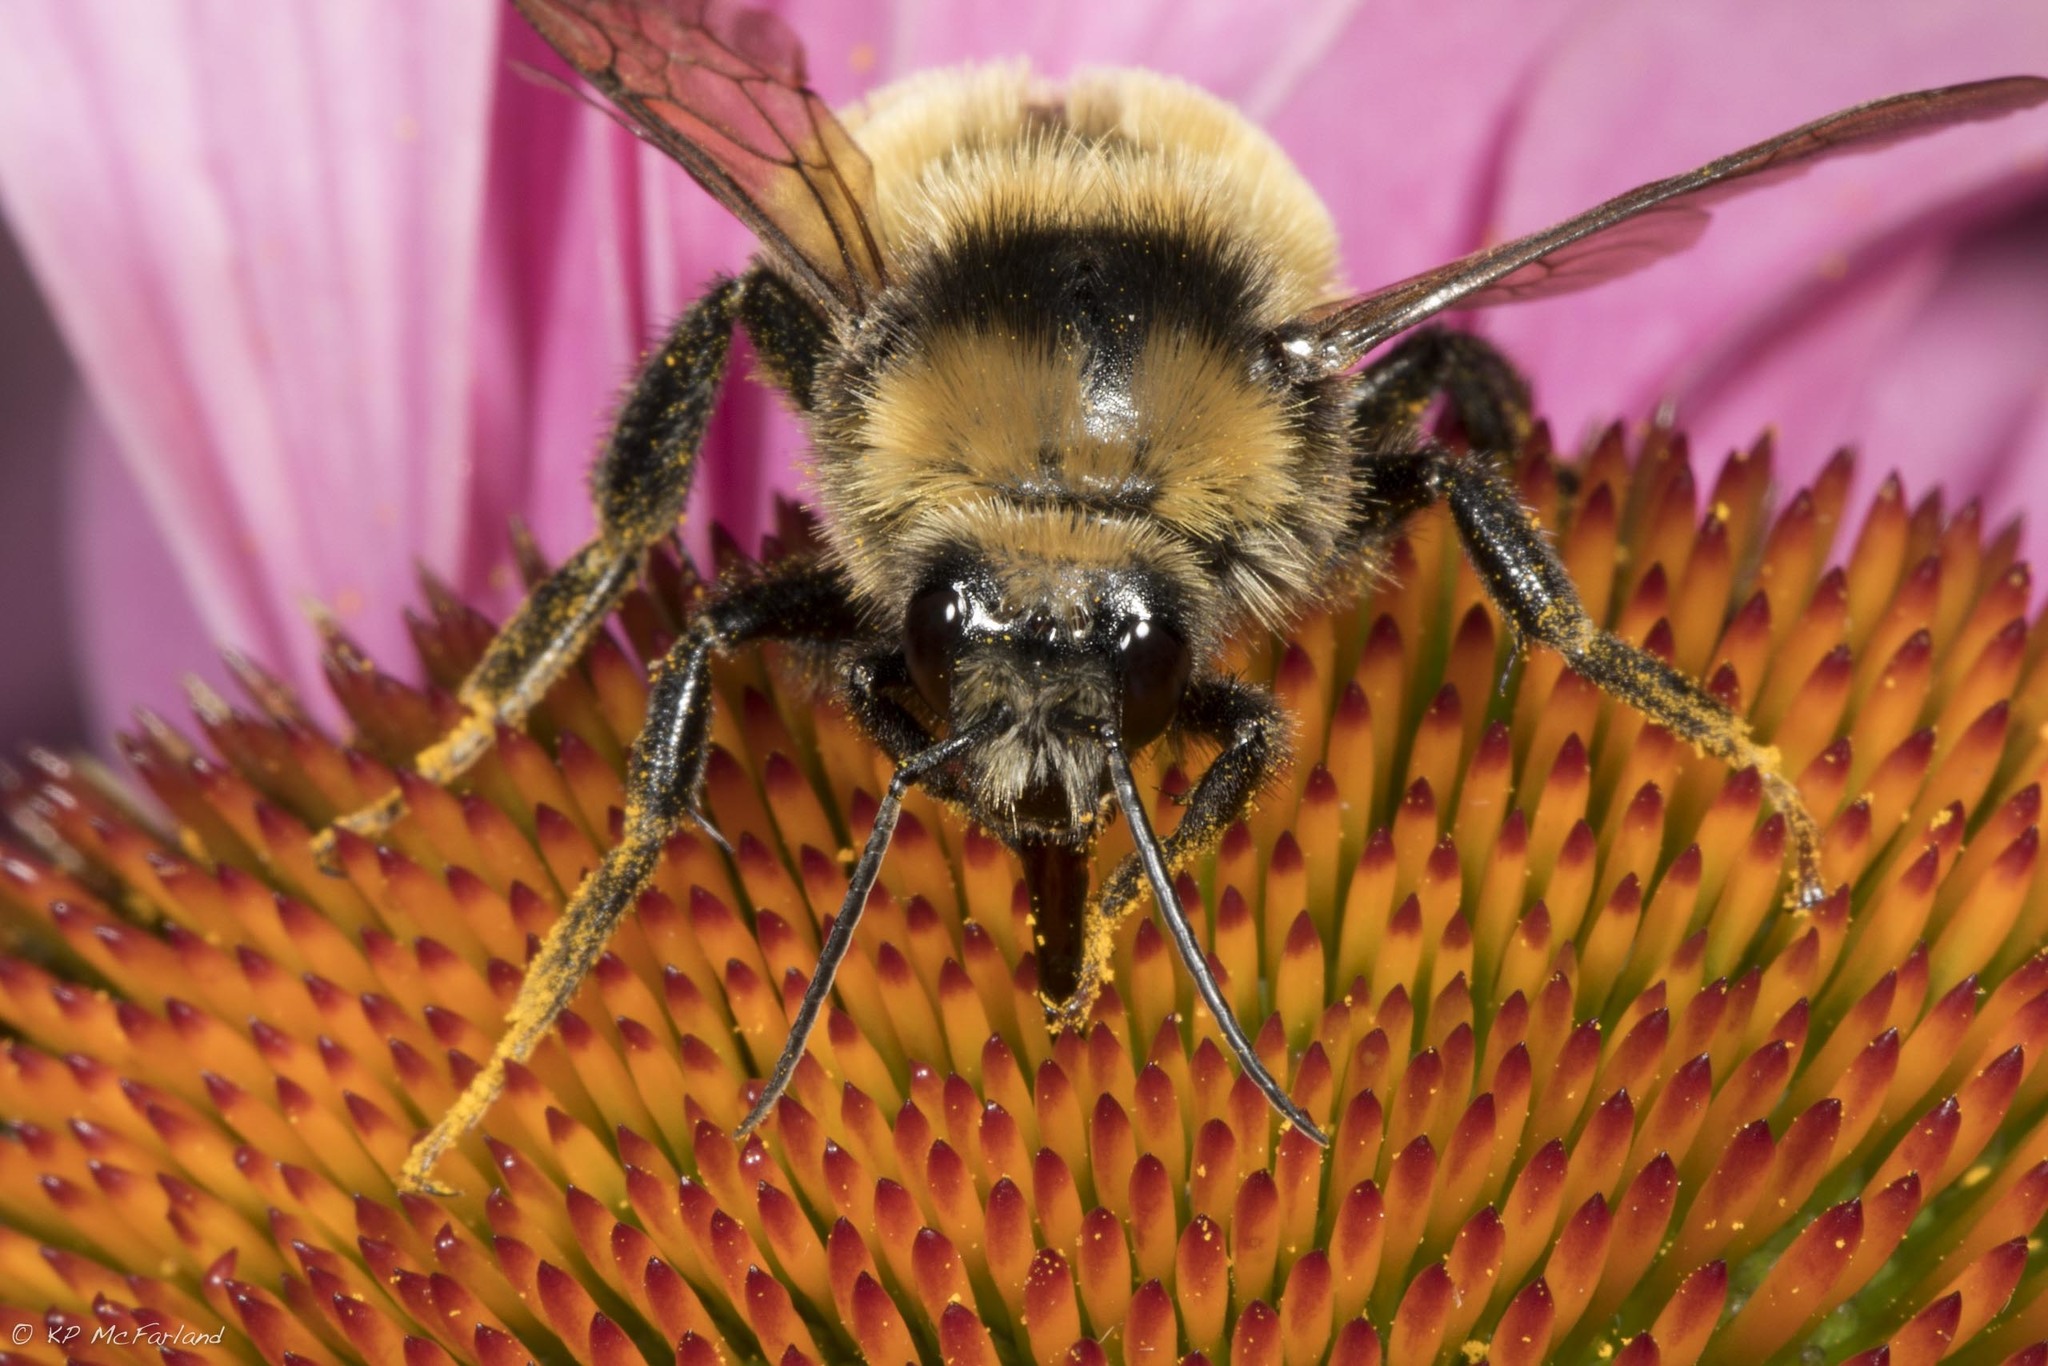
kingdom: Animalia
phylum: Arthropoda
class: Insecta
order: Hymenoptera
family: Apidae
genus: Bombus
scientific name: Bombus borealis
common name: Northern amber bumble bee
